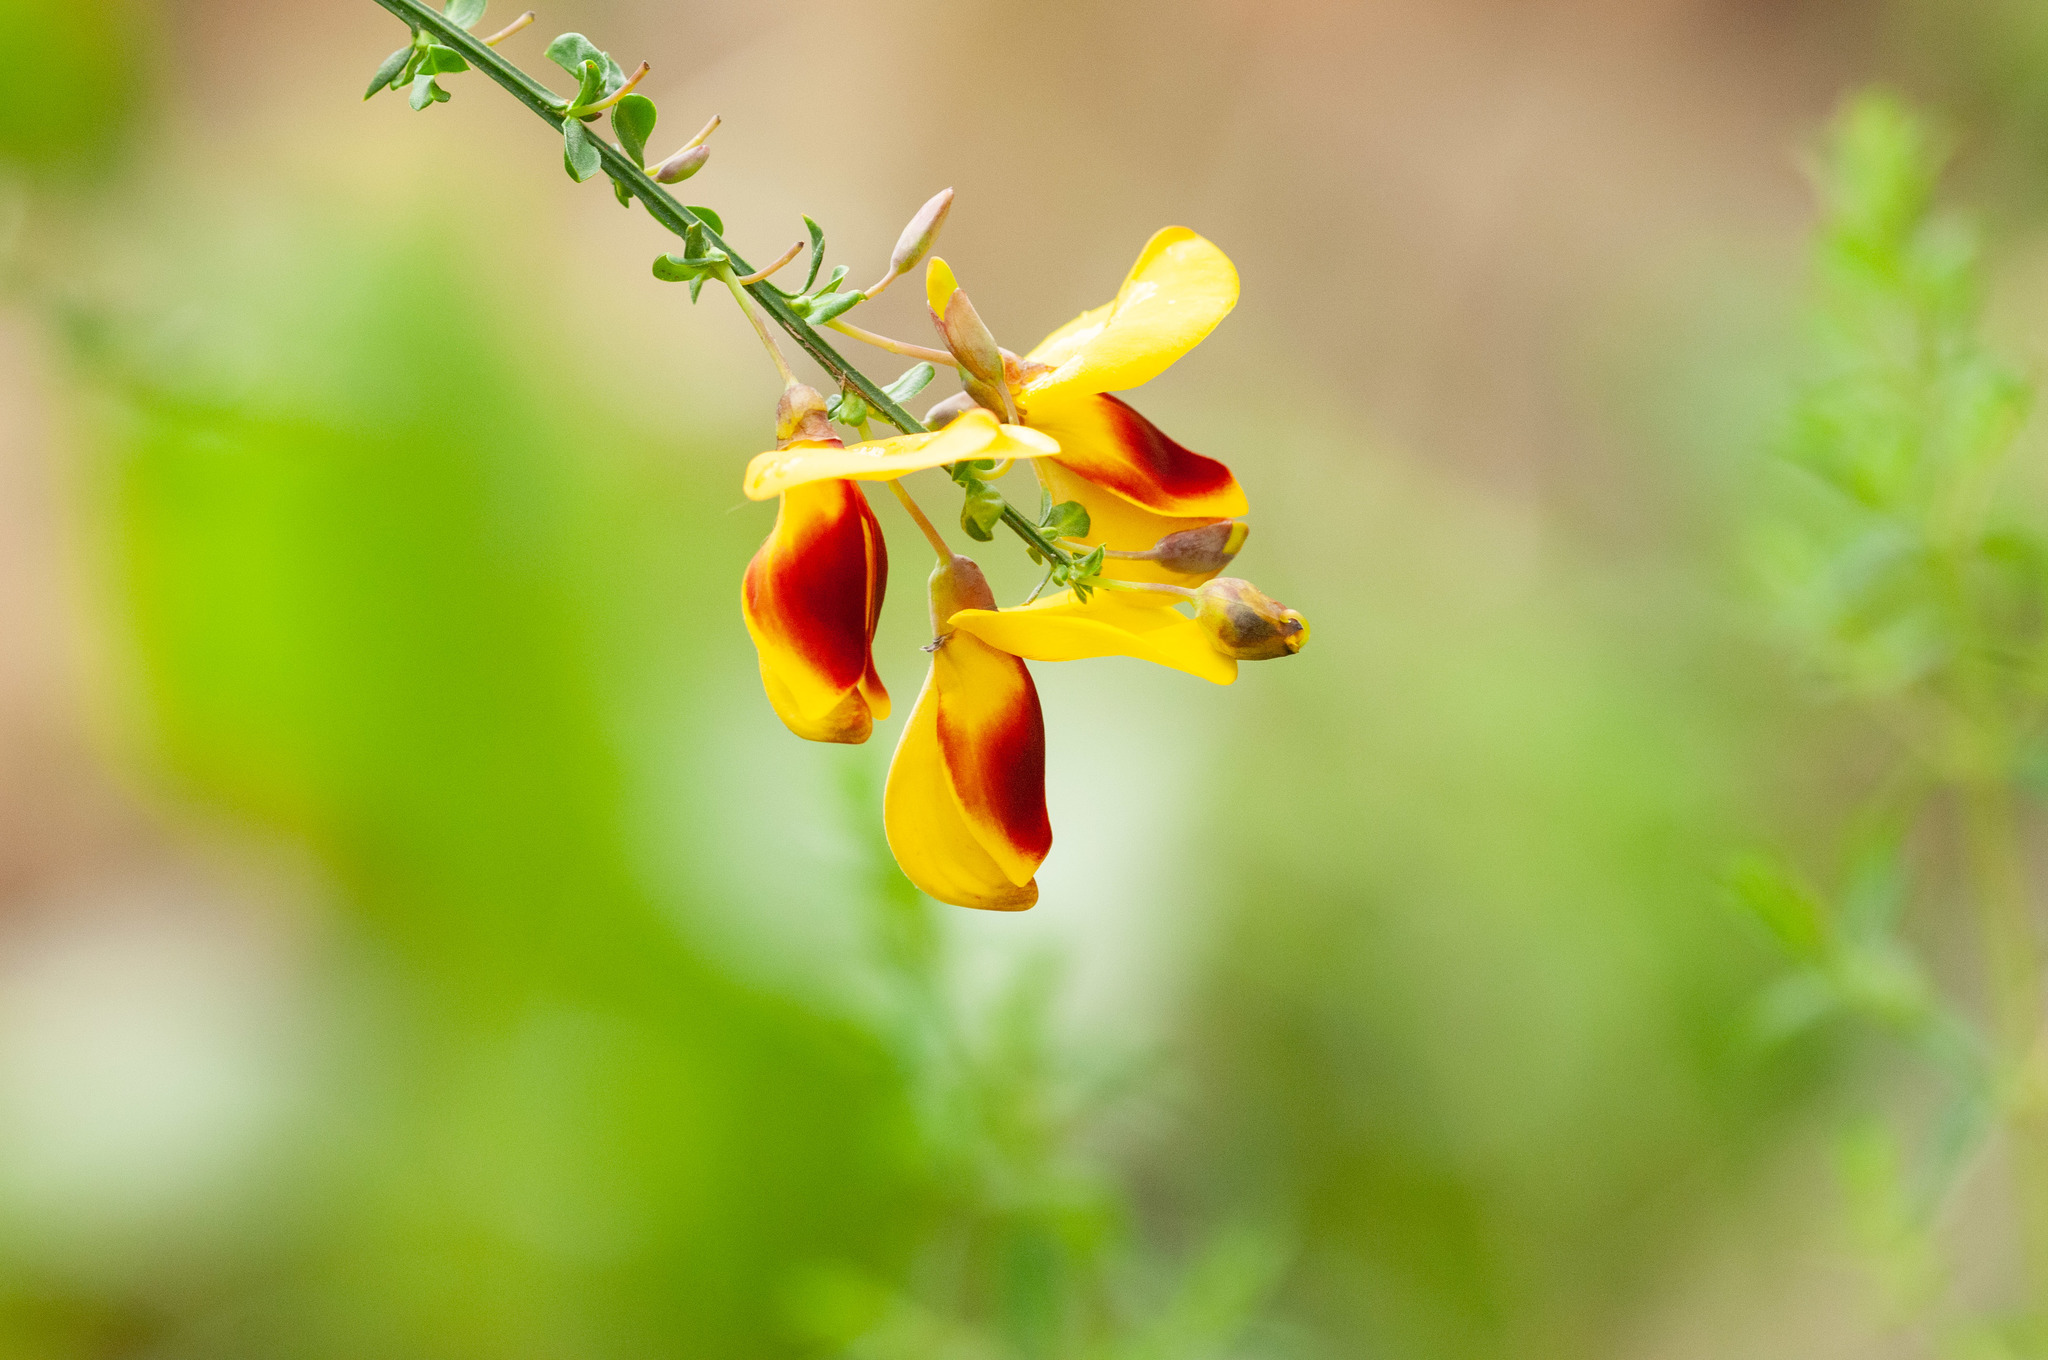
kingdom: Plantae
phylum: Tracheophyta
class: Magnoliopsida
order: Fabales
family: Fabaceae
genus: Cytisus
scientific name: Cytisus scoparius
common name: Scotch broom
